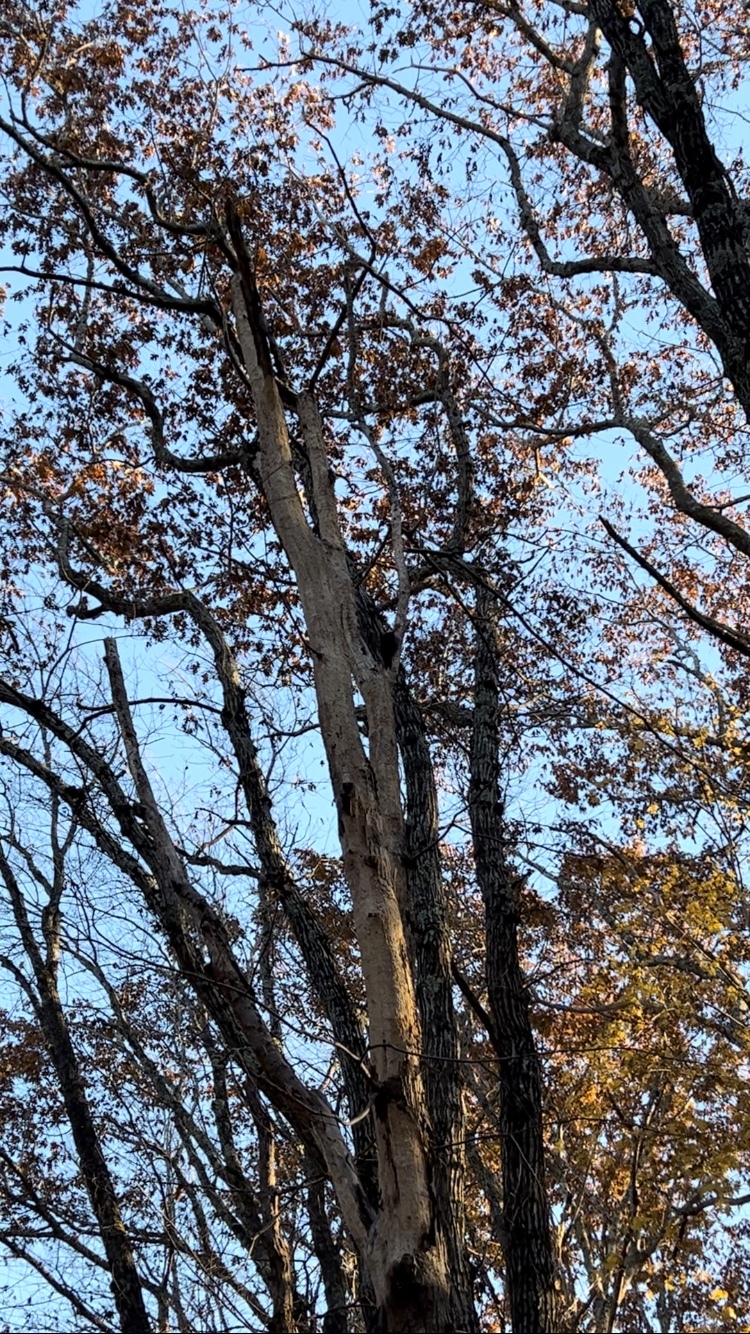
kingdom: Animalia
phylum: Chordata
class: Aves
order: Piciformes
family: Picidae
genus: Dryocopus
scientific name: Dryocopus pileatus
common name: Pileated woodpecker
